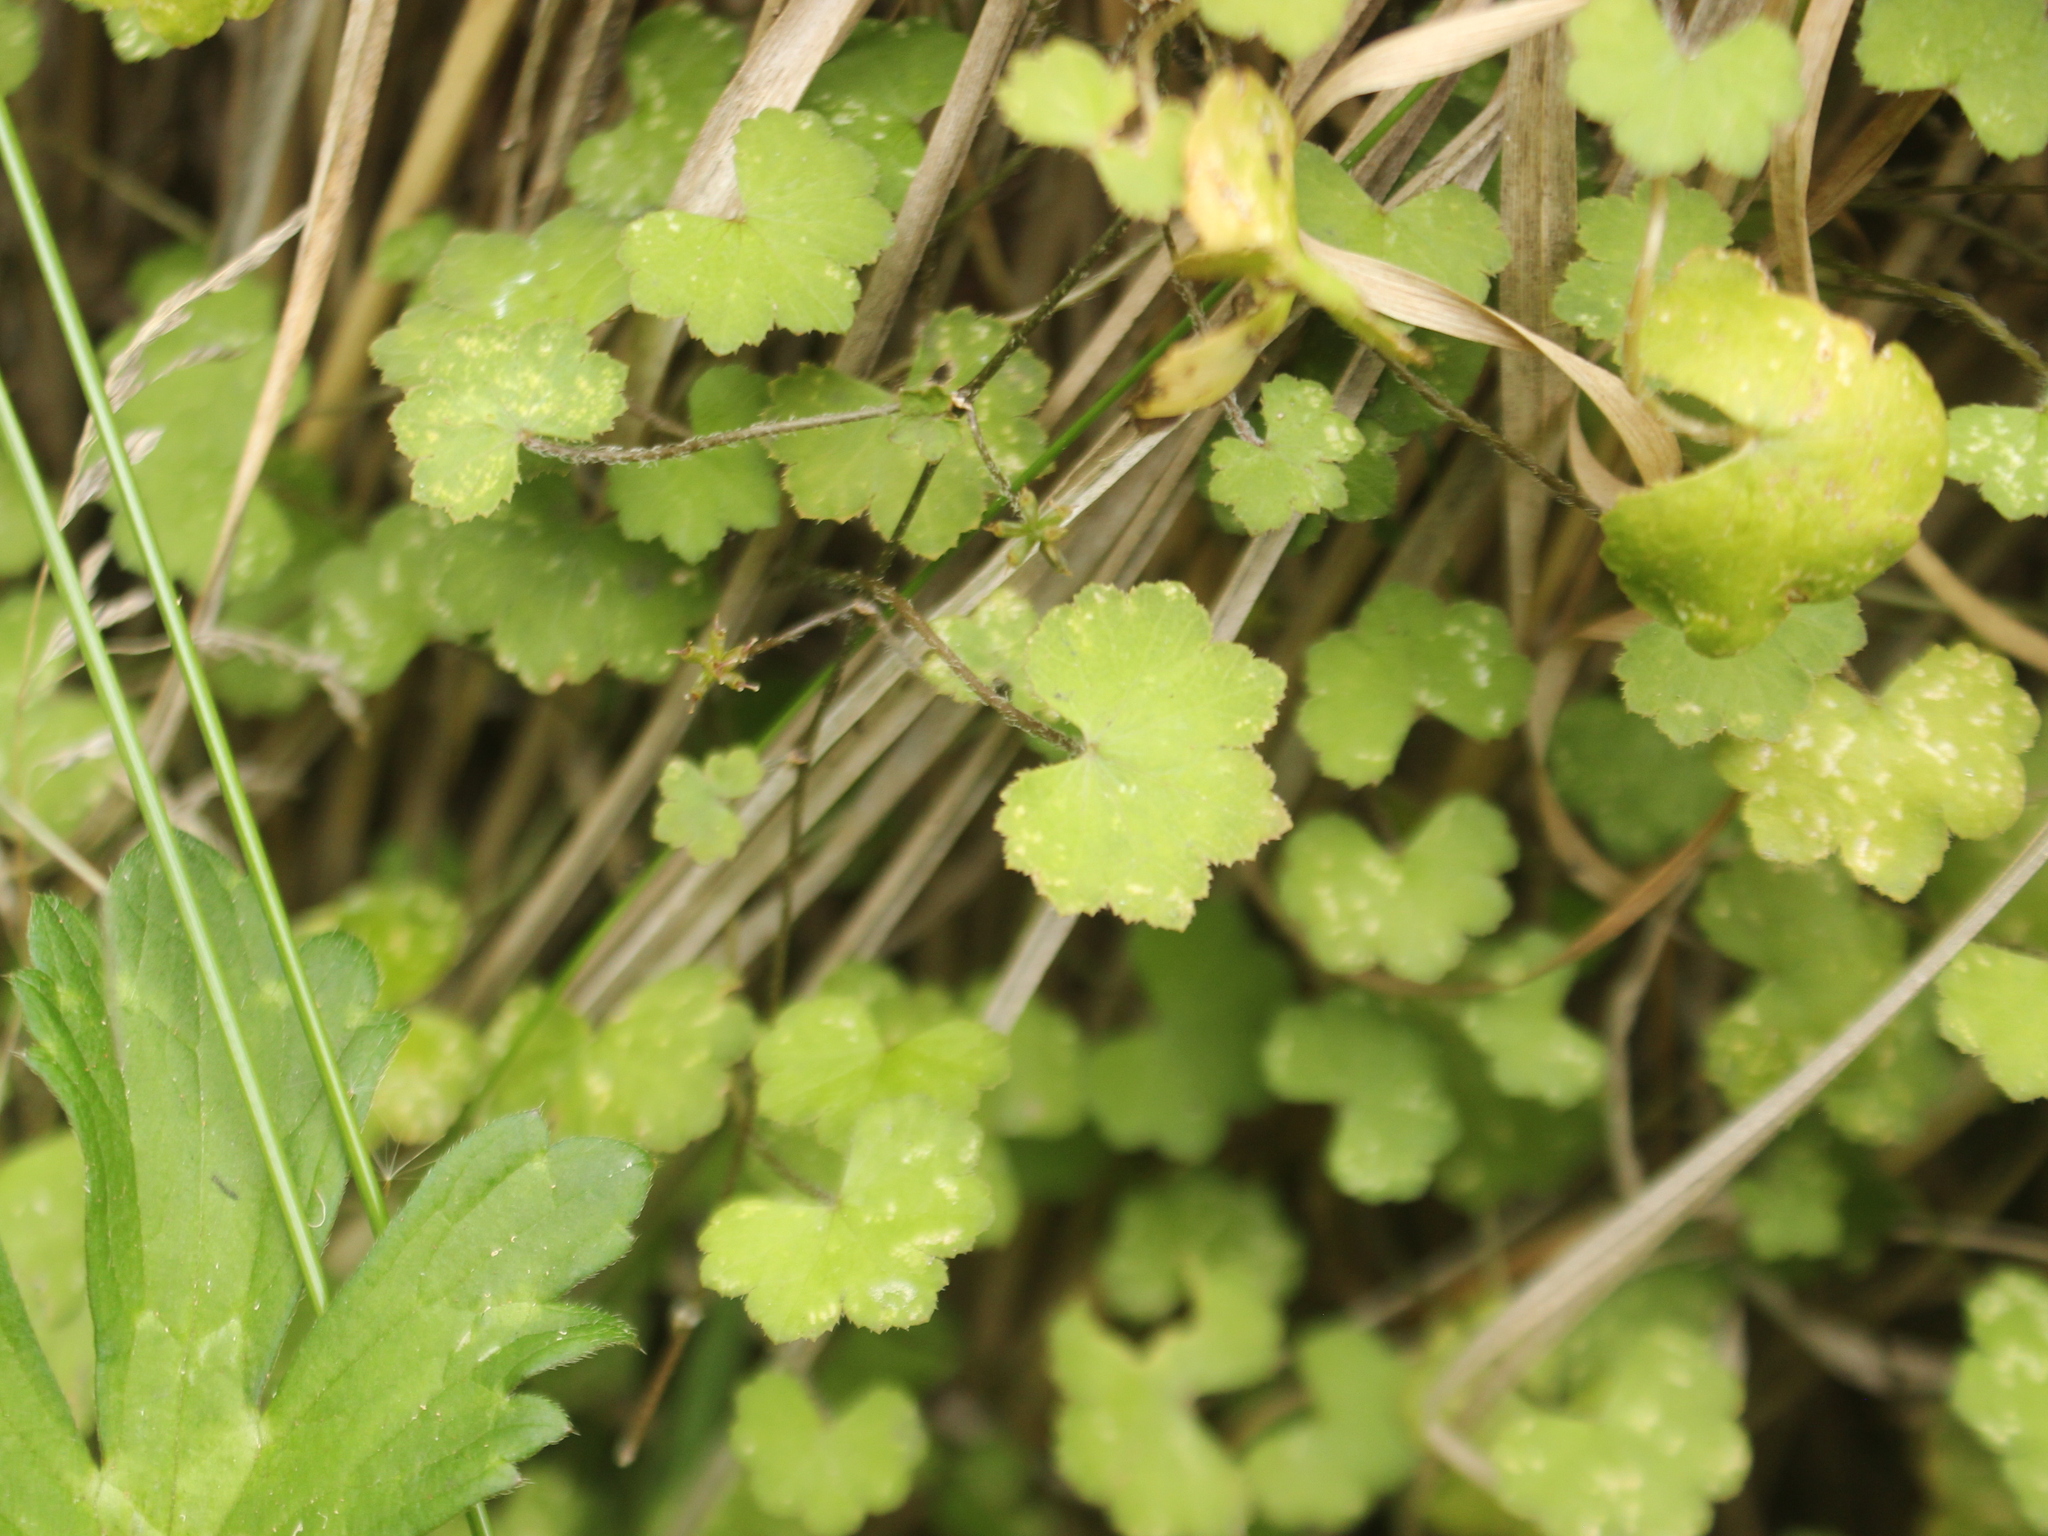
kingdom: Plantae
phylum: Tracheophyta
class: Magnoliopsida
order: Apiales
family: Araliaceae
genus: Hydrocotyle
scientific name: Hydrocotyle novae-zeelandiae
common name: New zealand pennywort
